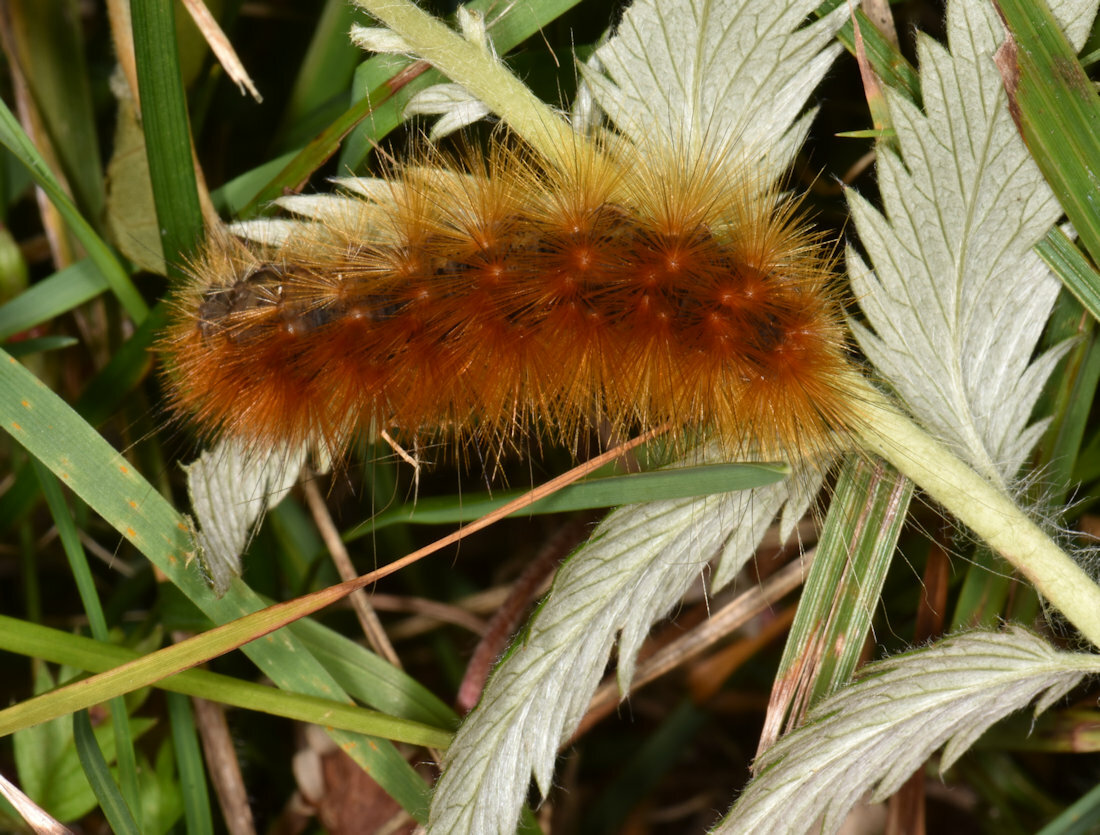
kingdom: Animalia
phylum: Arthropoda
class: Insecta
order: Lepidoptera
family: Erebidae
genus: Spilosoma
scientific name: Spilosoma virginica
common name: Virginia tiger moth
